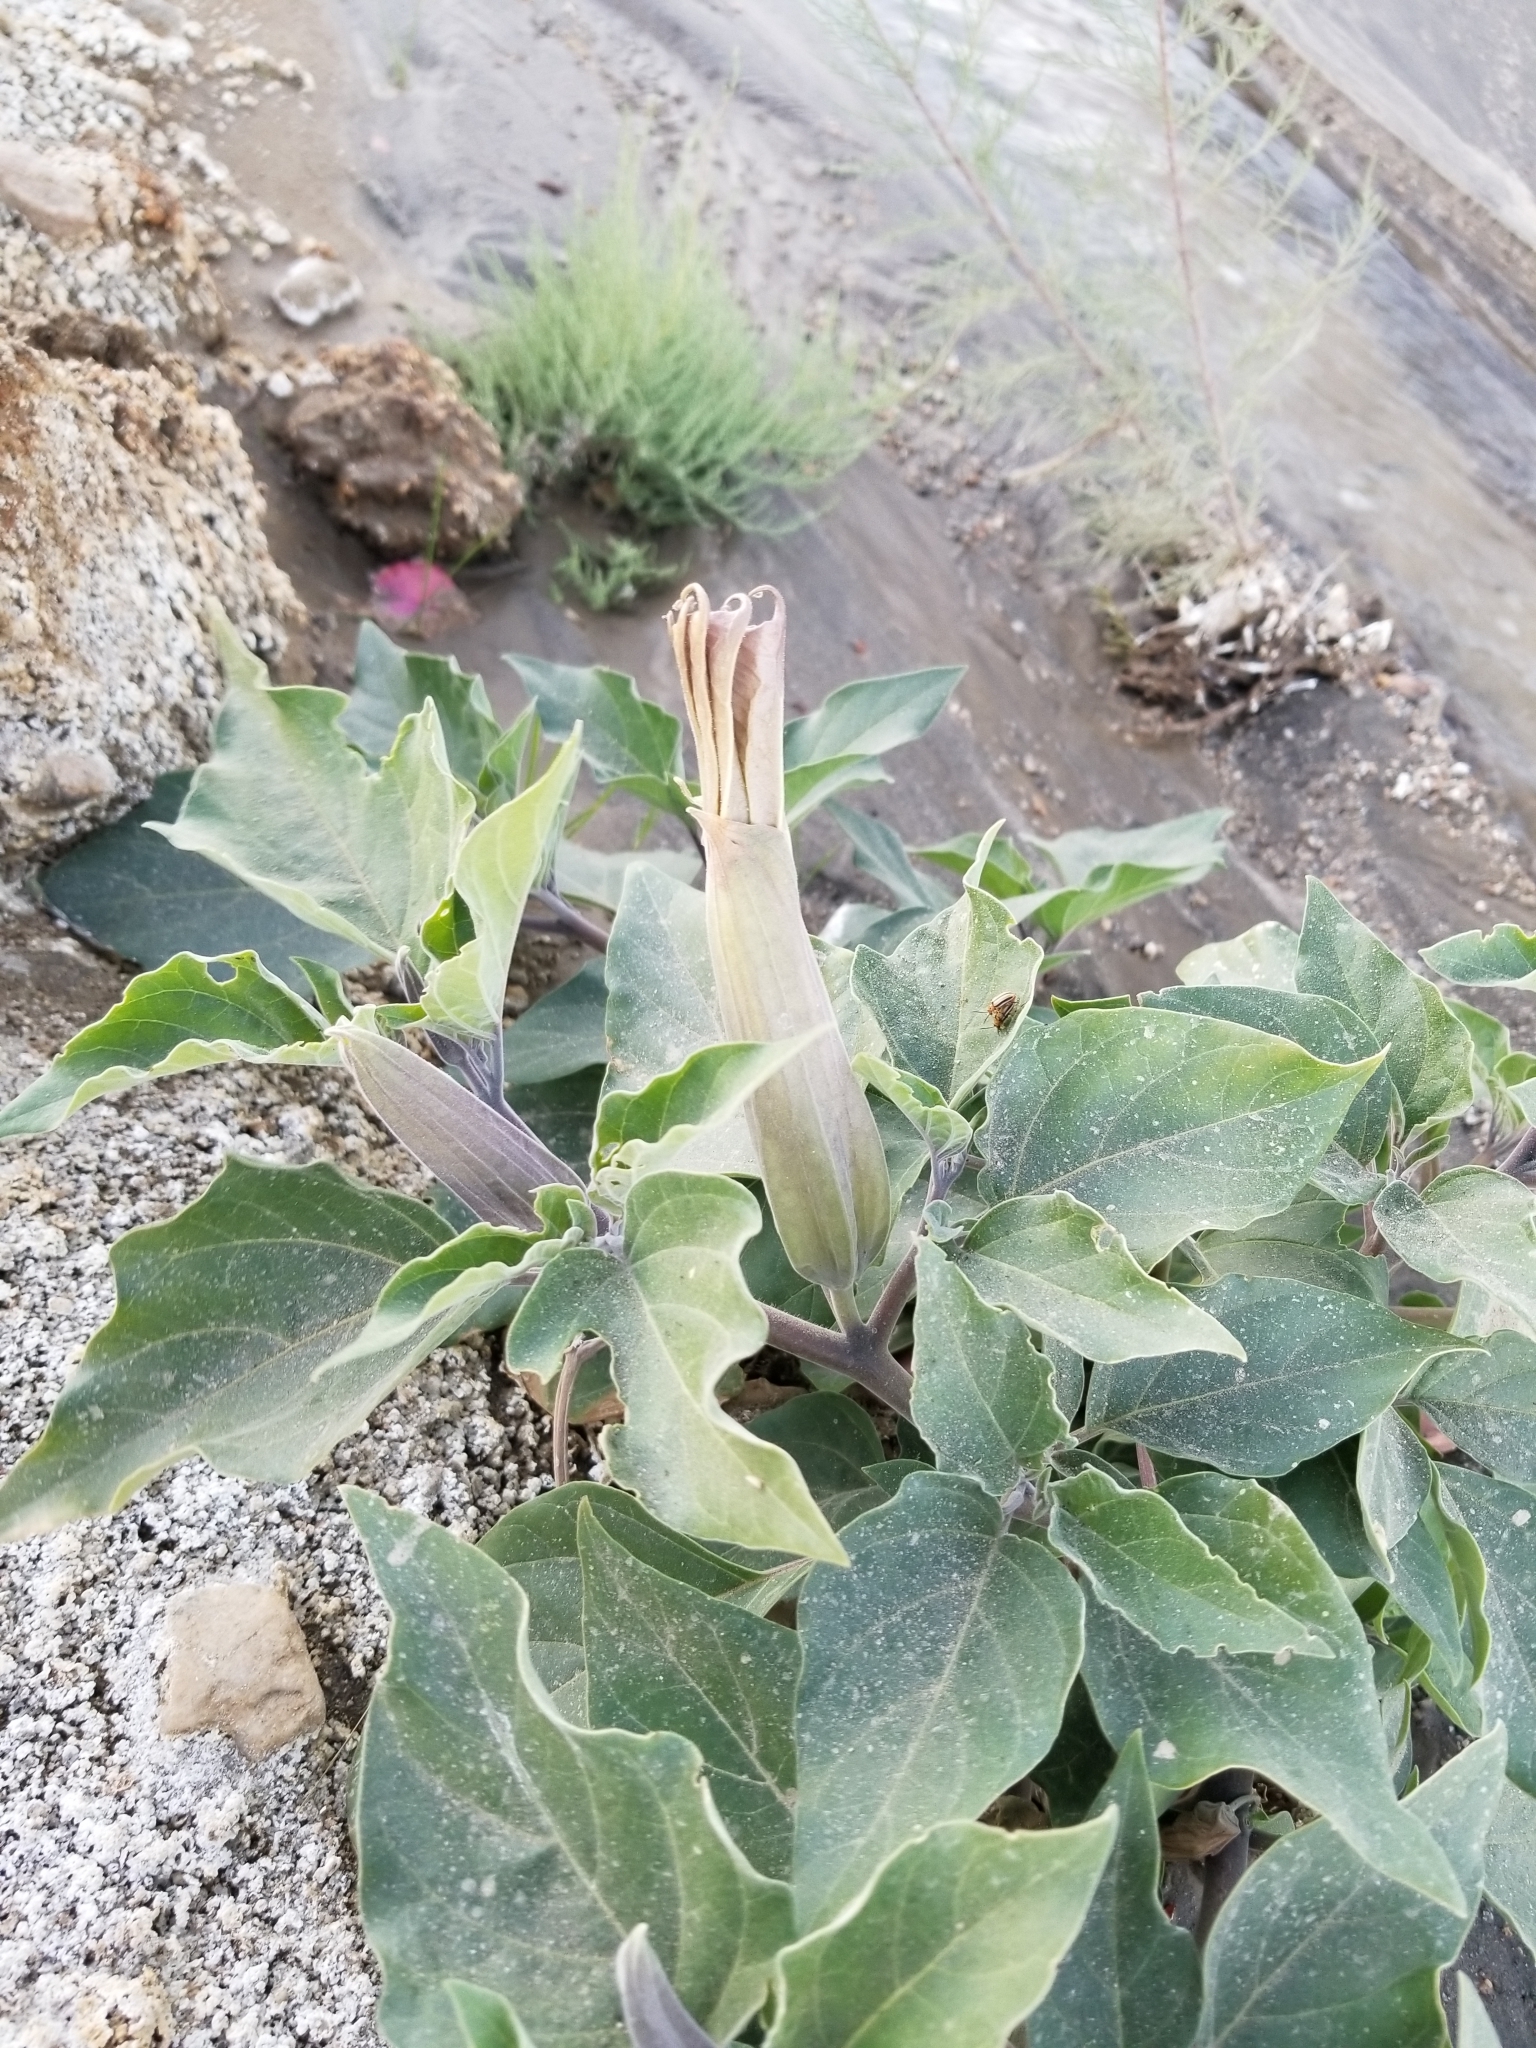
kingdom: Plantae
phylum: Tracheophyta
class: Magnoliopsida
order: Solanales
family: Solanaceae
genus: Datura
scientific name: Datura discolor
